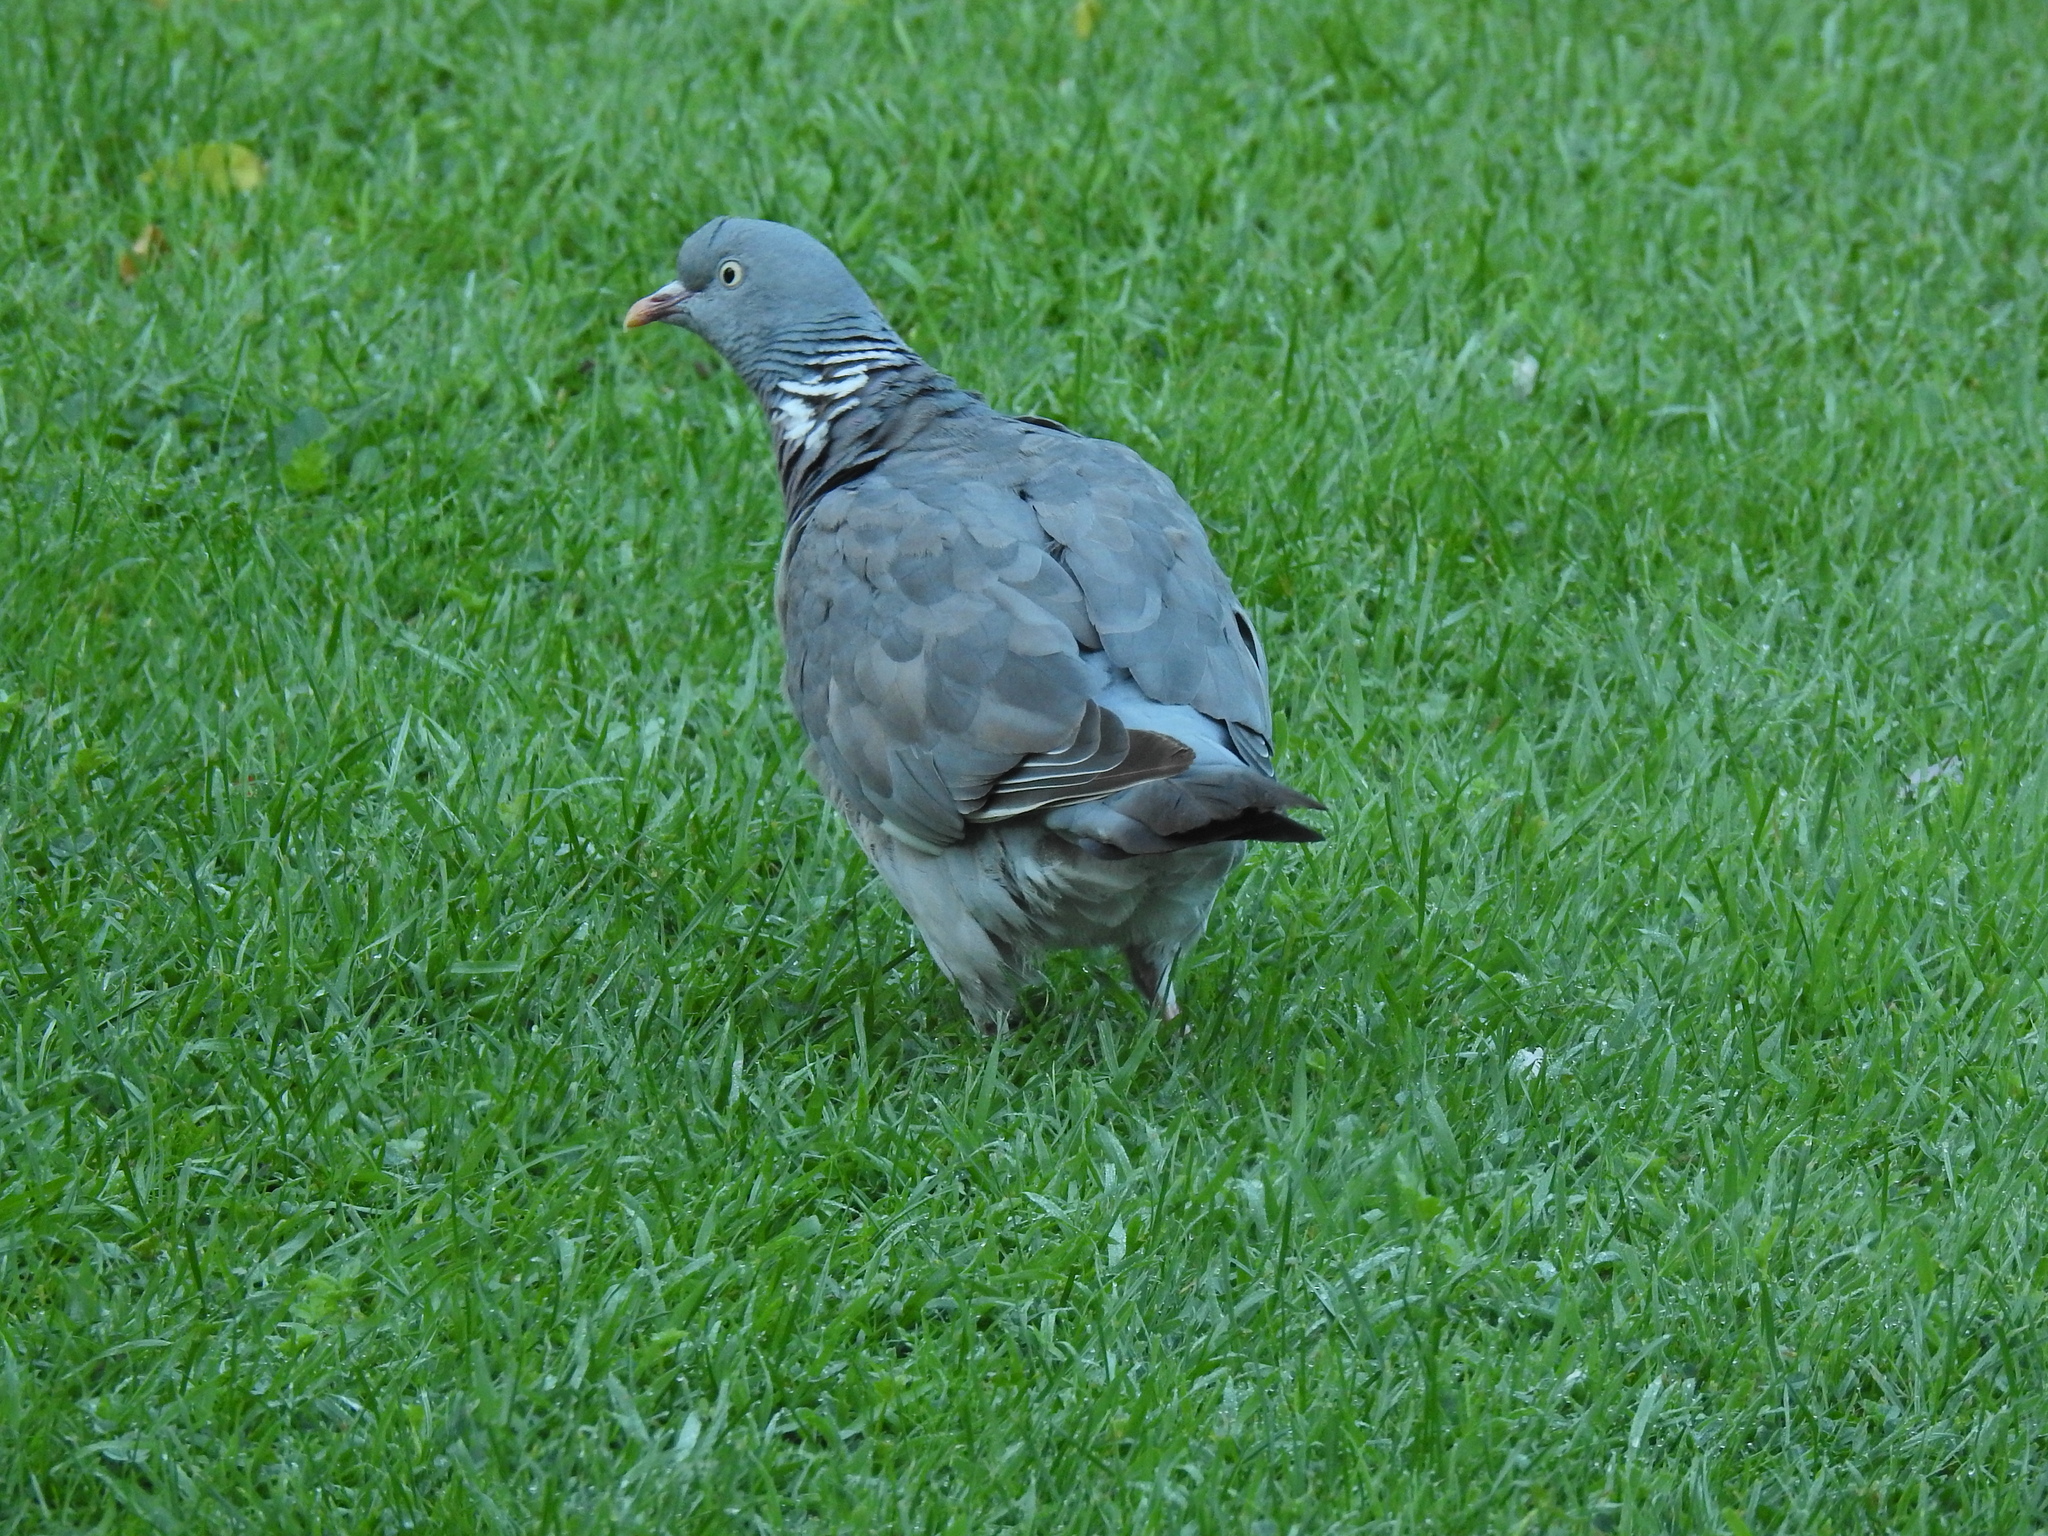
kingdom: Animalia
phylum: Chordata
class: Aves
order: Columbiformes
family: Columbidae
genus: Columba
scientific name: Columba palumbus
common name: Common wood pigeon
